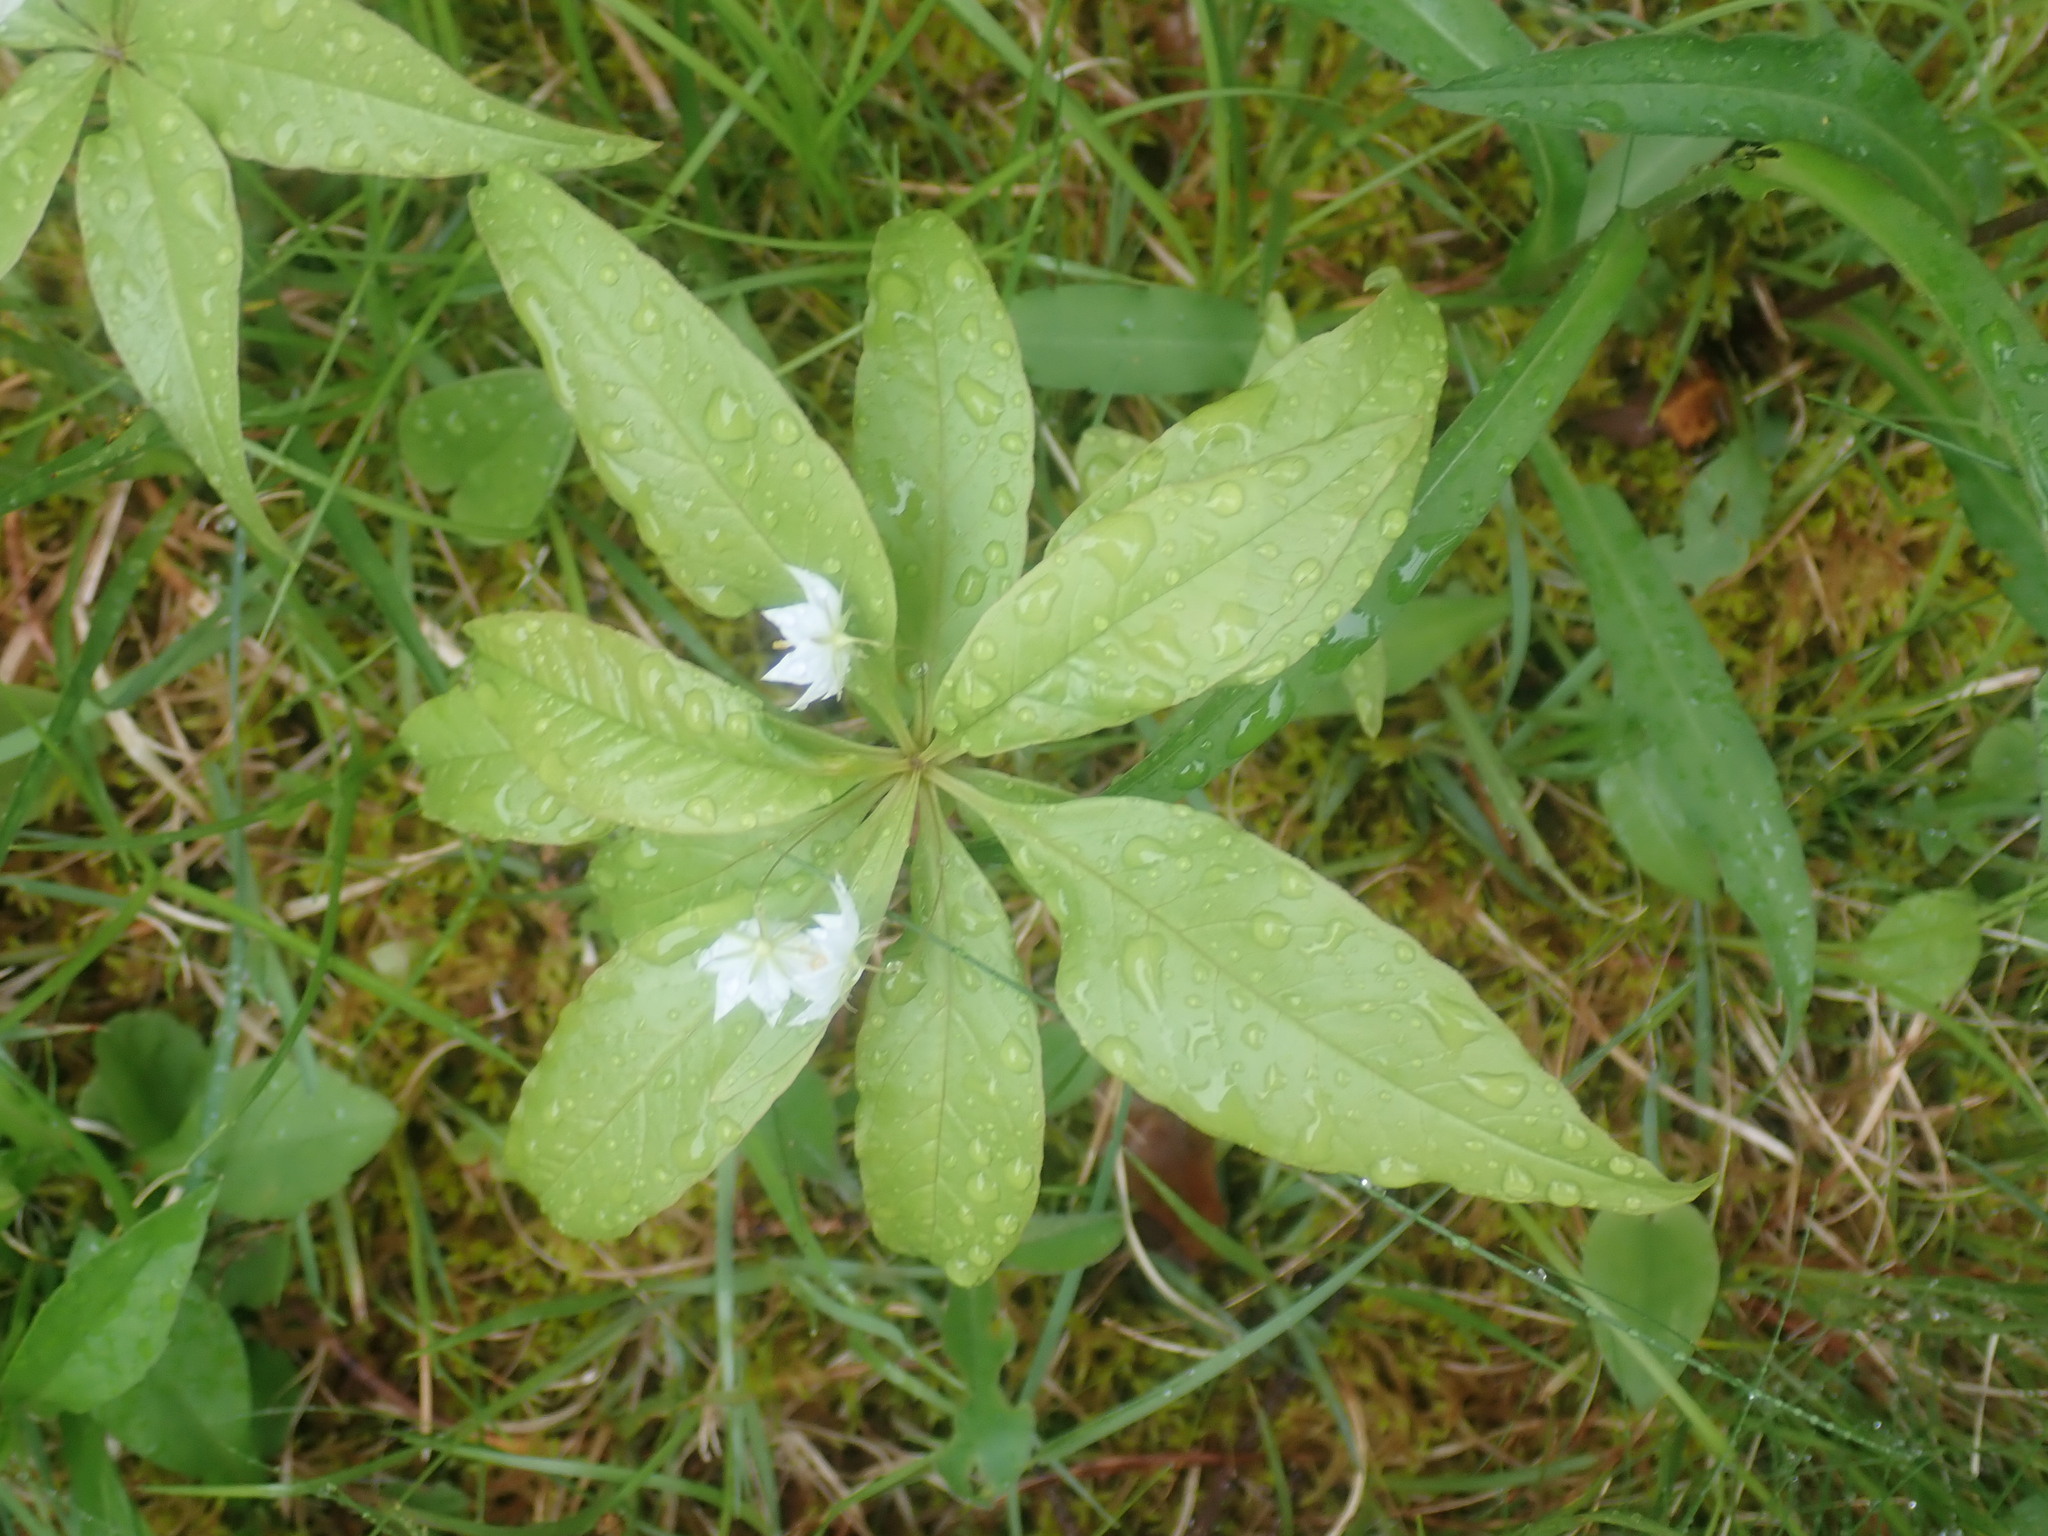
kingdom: Plantae
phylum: Tracheophyta
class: Magnoliopsida
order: Ericales
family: Primulaceae
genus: Lysimachia
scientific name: Lysimachia borealis
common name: American starflower
